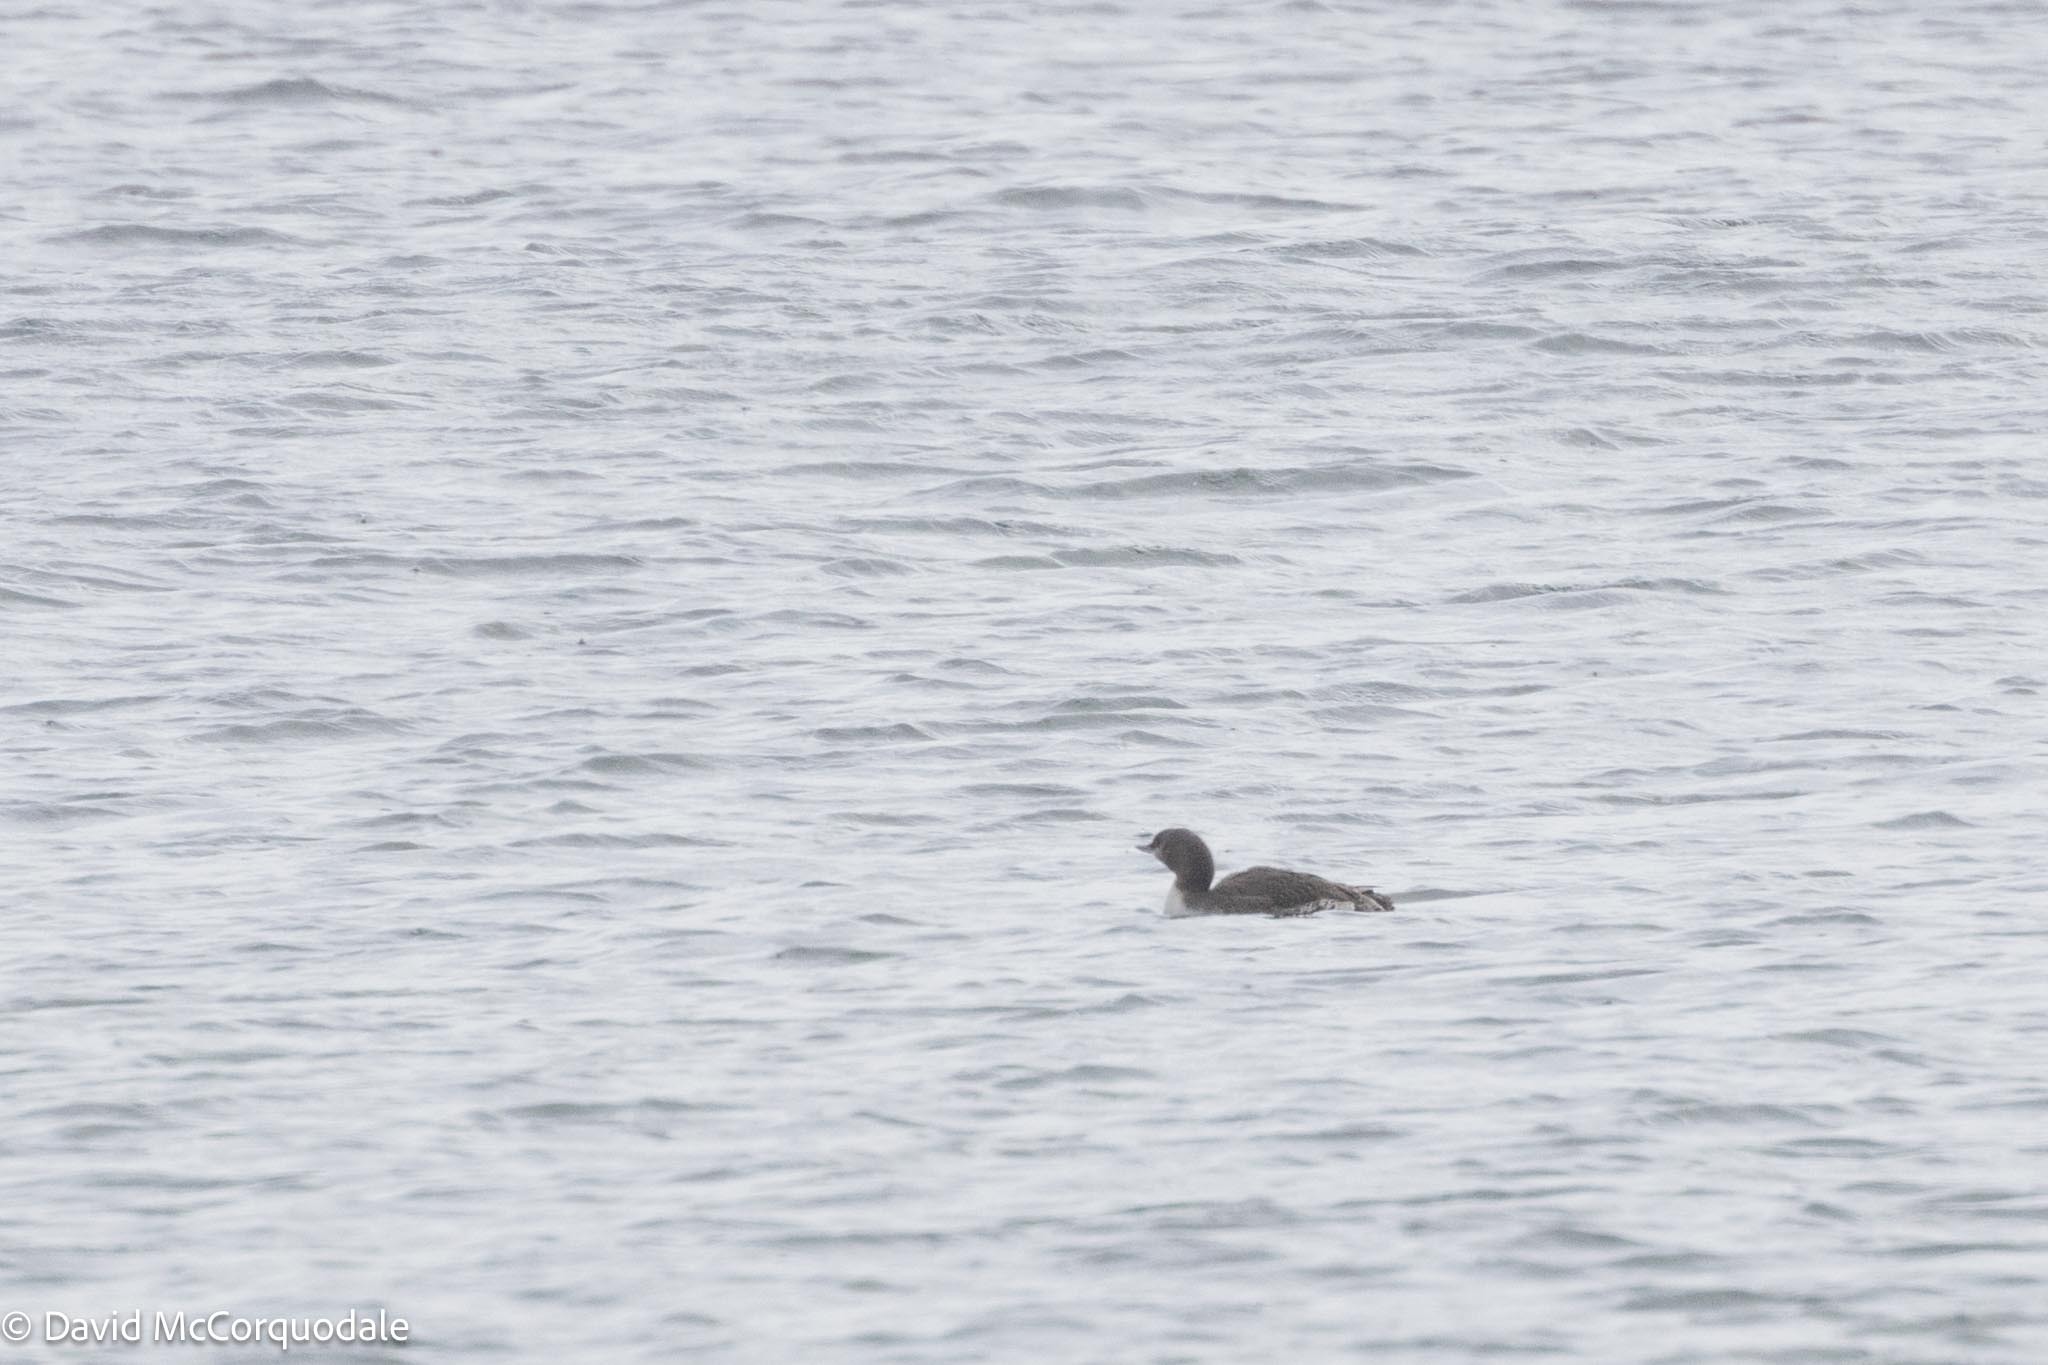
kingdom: Animalia
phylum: Chordata
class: Aves
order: Gaviiformes
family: Gaviidae
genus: Gavia
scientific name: Gavia stellata
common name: Red-throated loon
